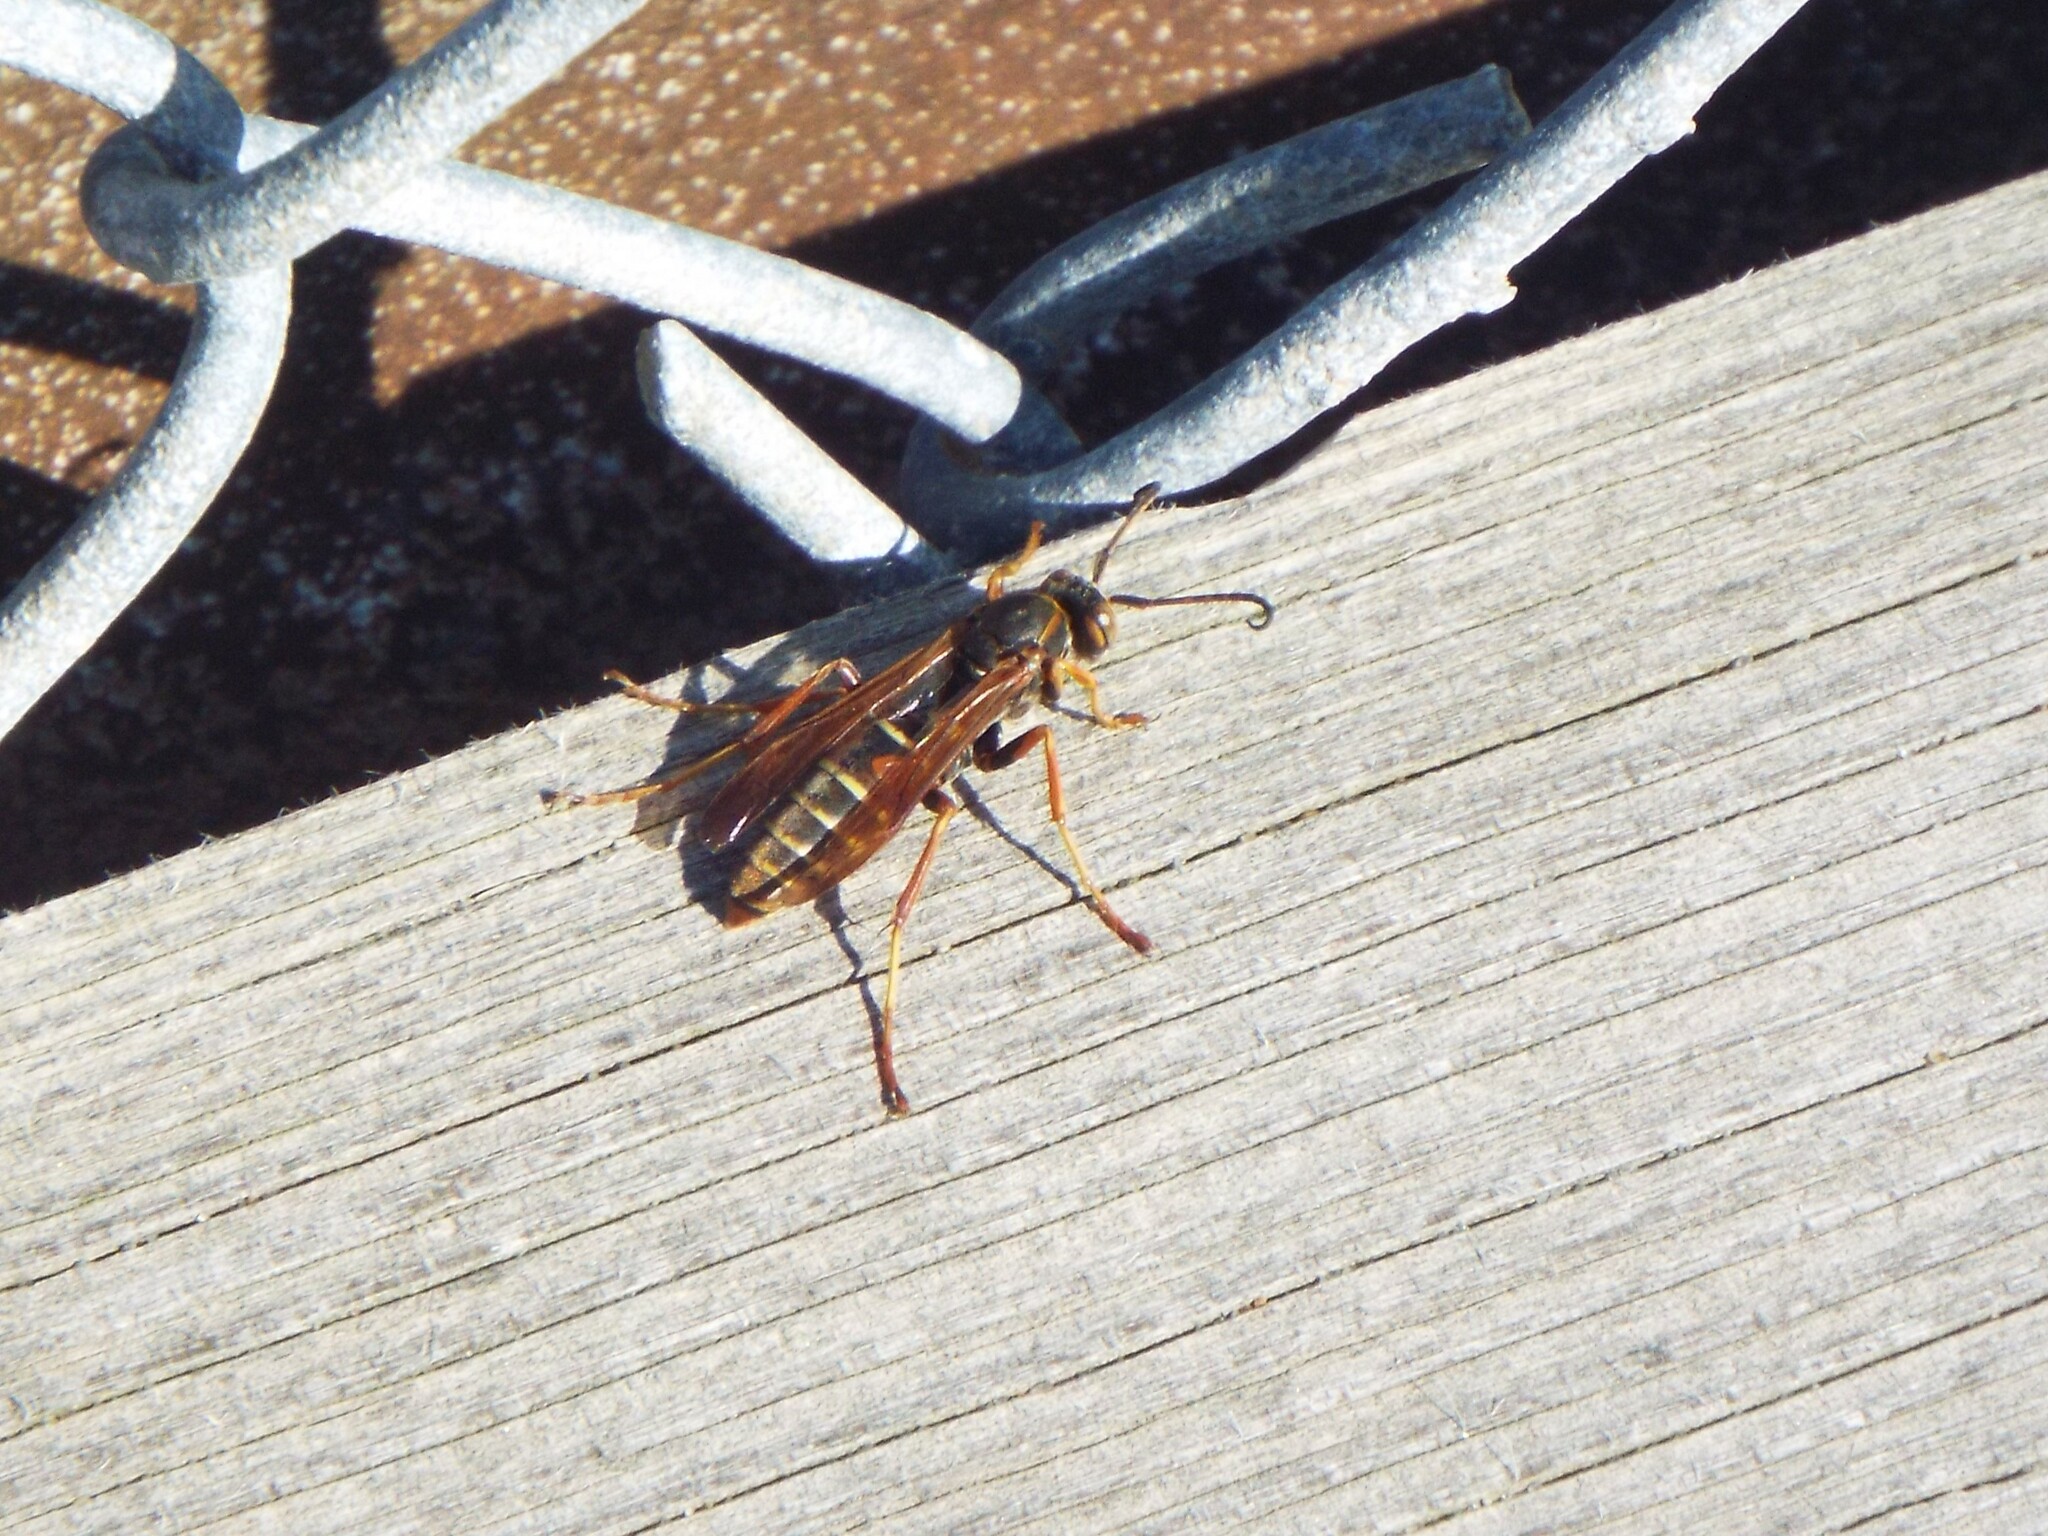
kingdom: Animalia
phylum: Arthropoda
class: Insecta
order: Hymenoptera
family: Eumenidae
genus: Polistes
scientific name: Polistes fuscatus
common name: Dark paper wasp
